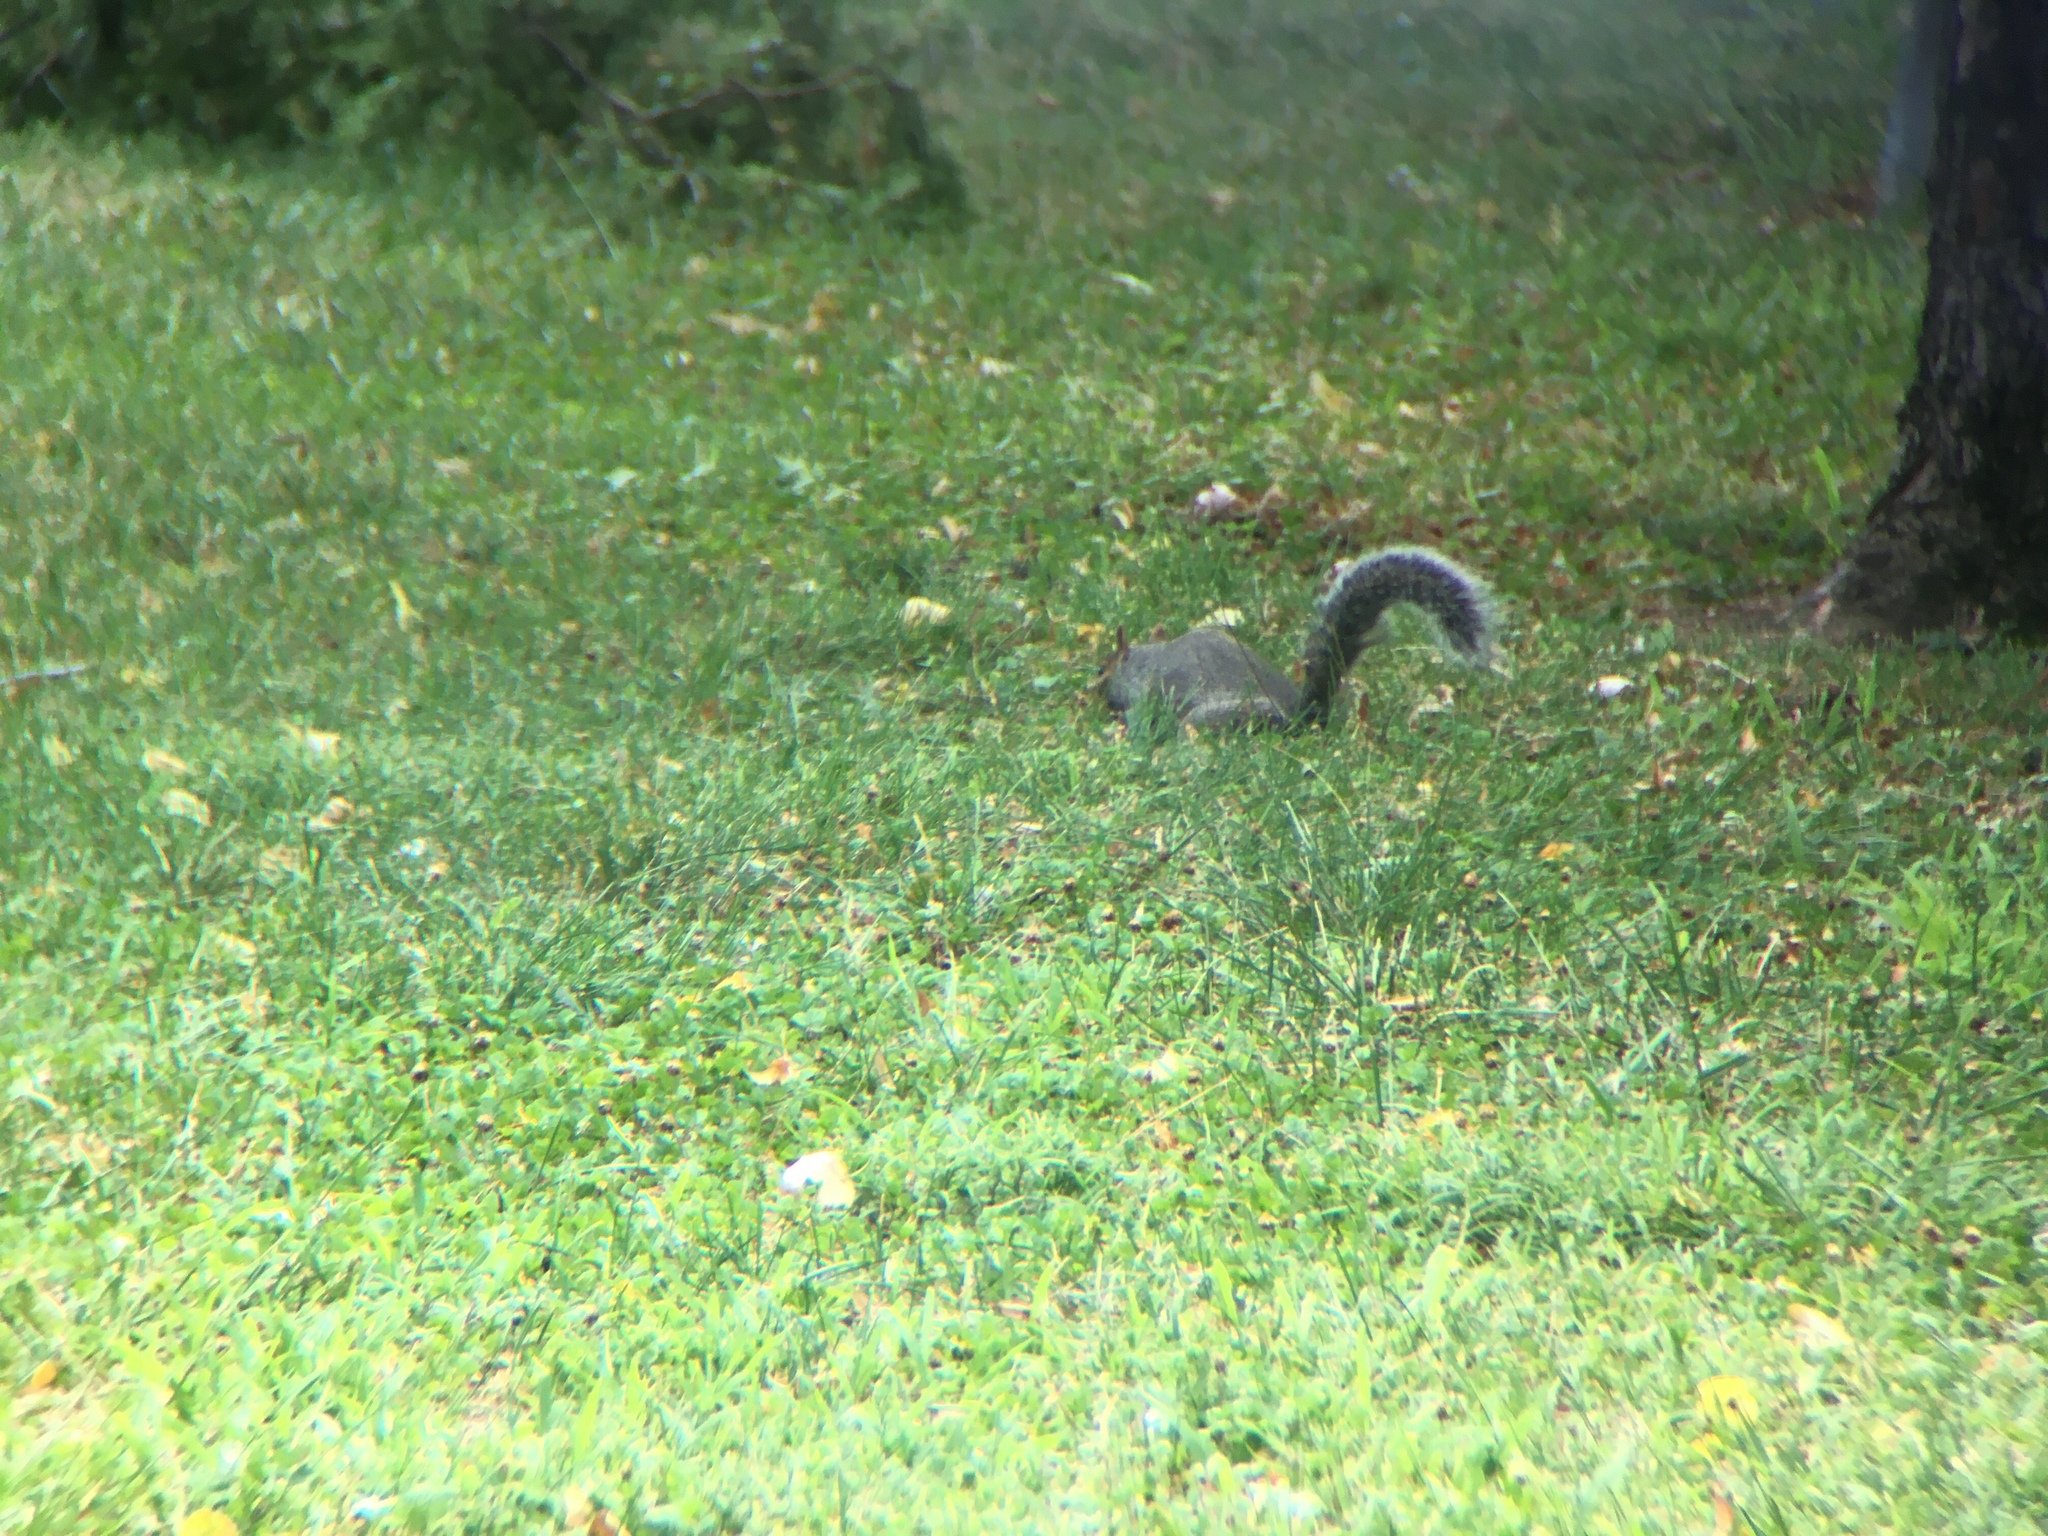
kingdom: Animalia
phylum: Chordata
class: Mammalia
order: Rodentia
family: Sciuridae
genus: Sciurus
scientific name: Sciurus carolinensis
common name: Eastern gray squirrel
